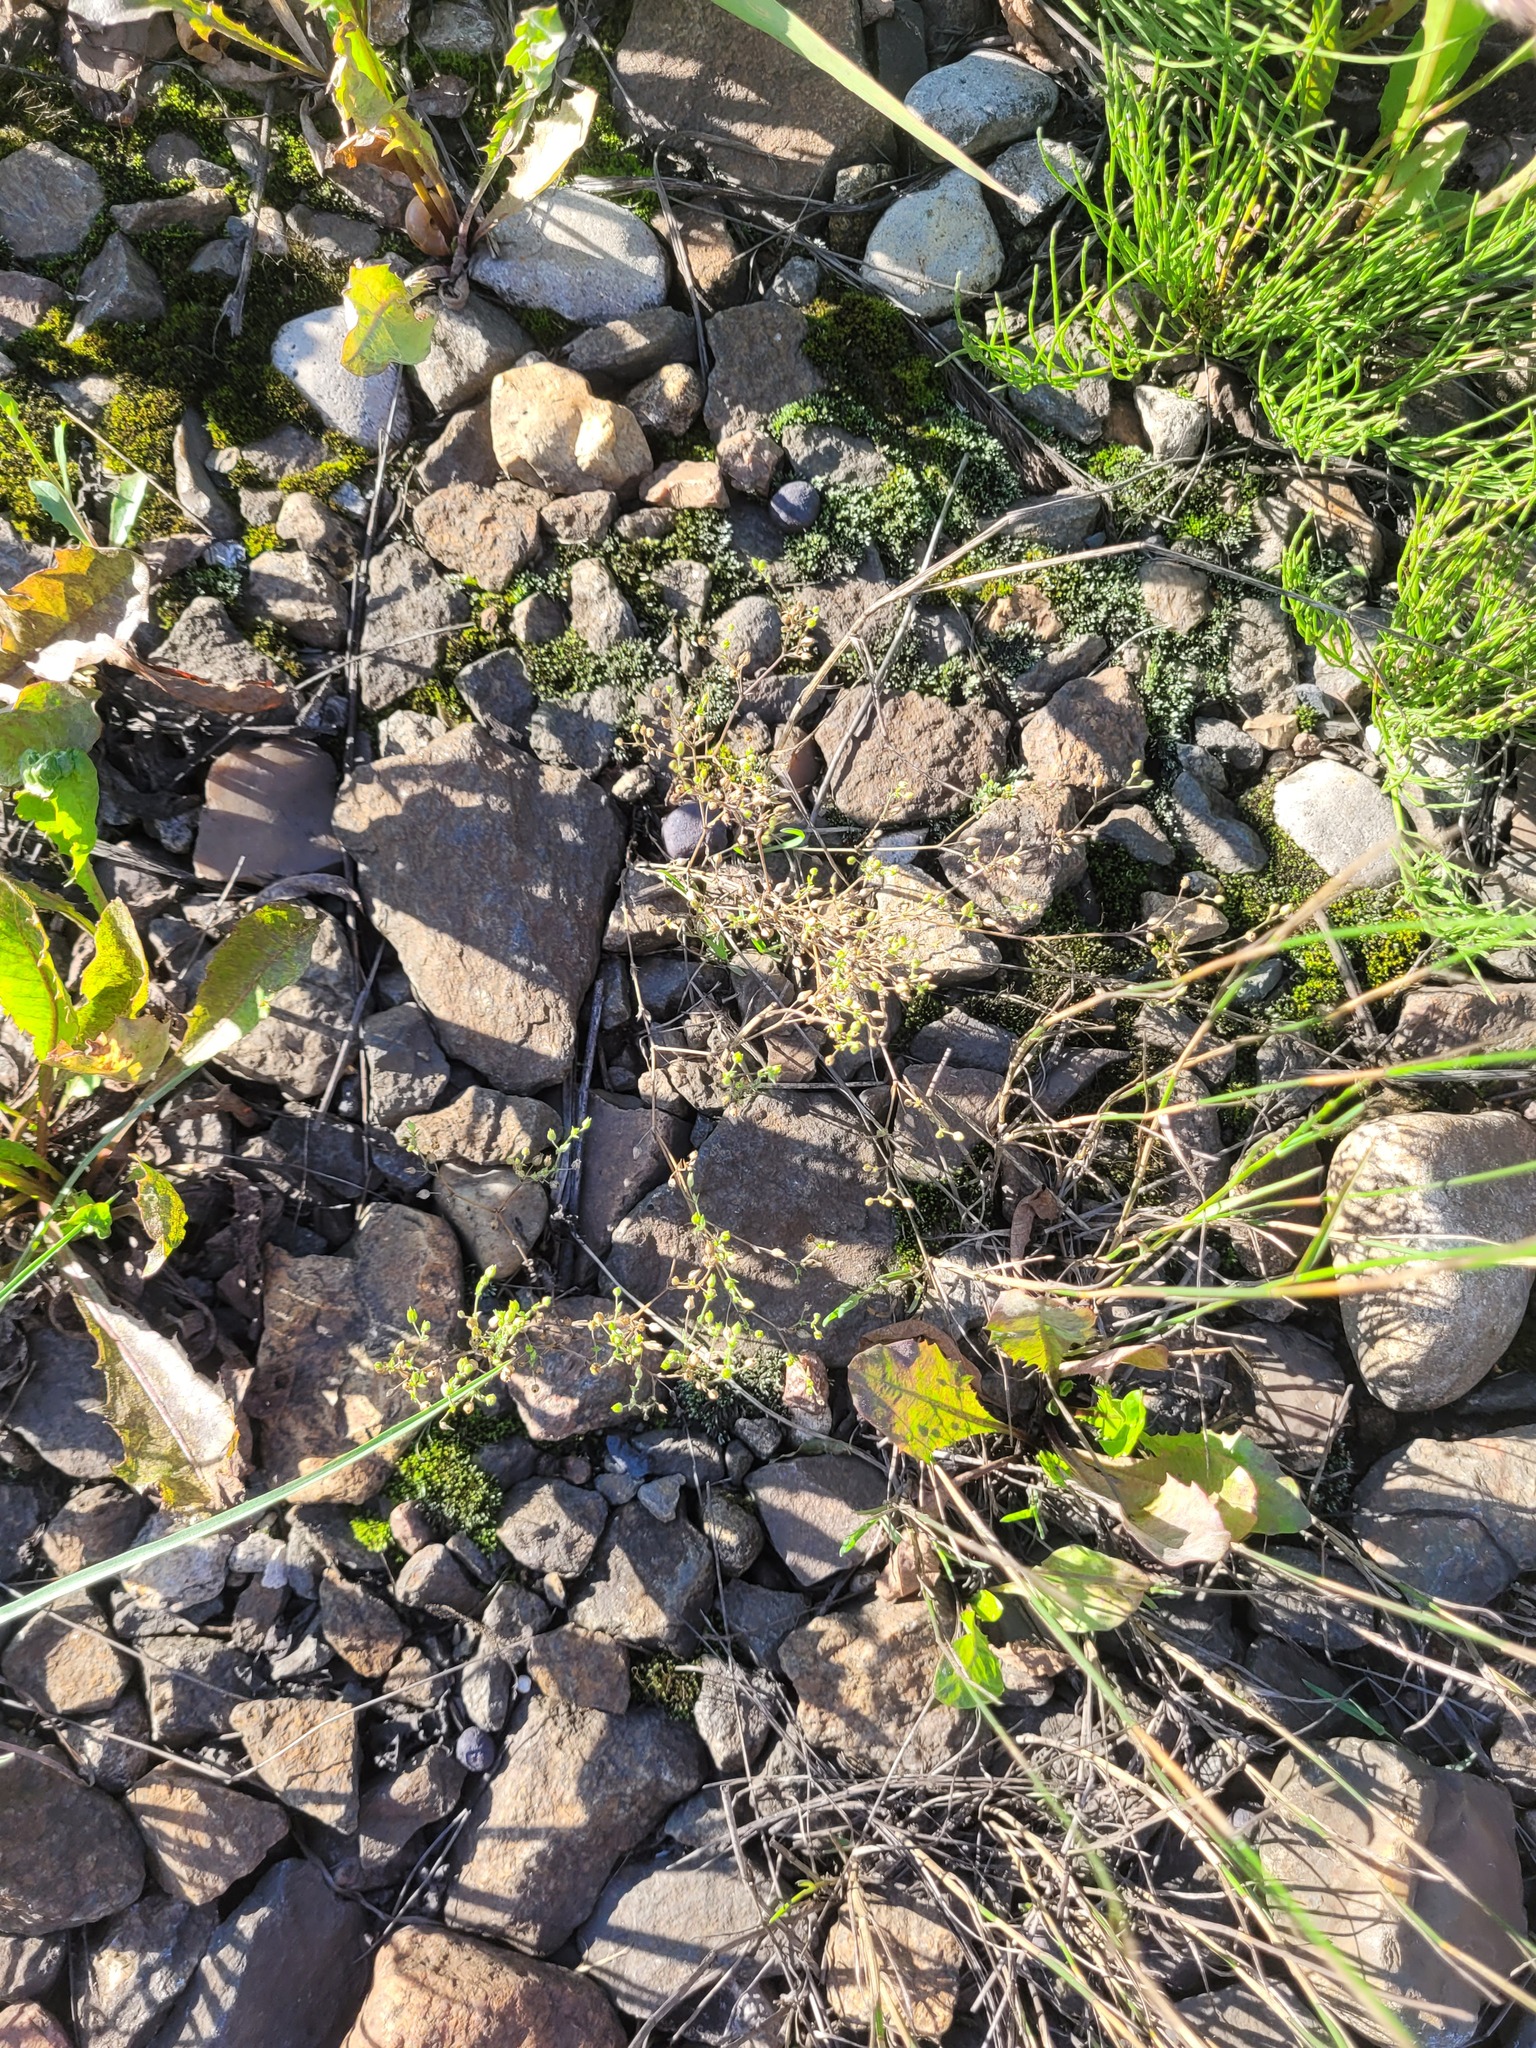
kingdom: Plantae
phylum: Tracheophyta
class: Magnoliopsida
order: Caryophyllales
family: Caryophyllaceae
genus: Arenaria
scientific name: Arenaria serpyllifolia
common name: Thyme-leaved sandwort
